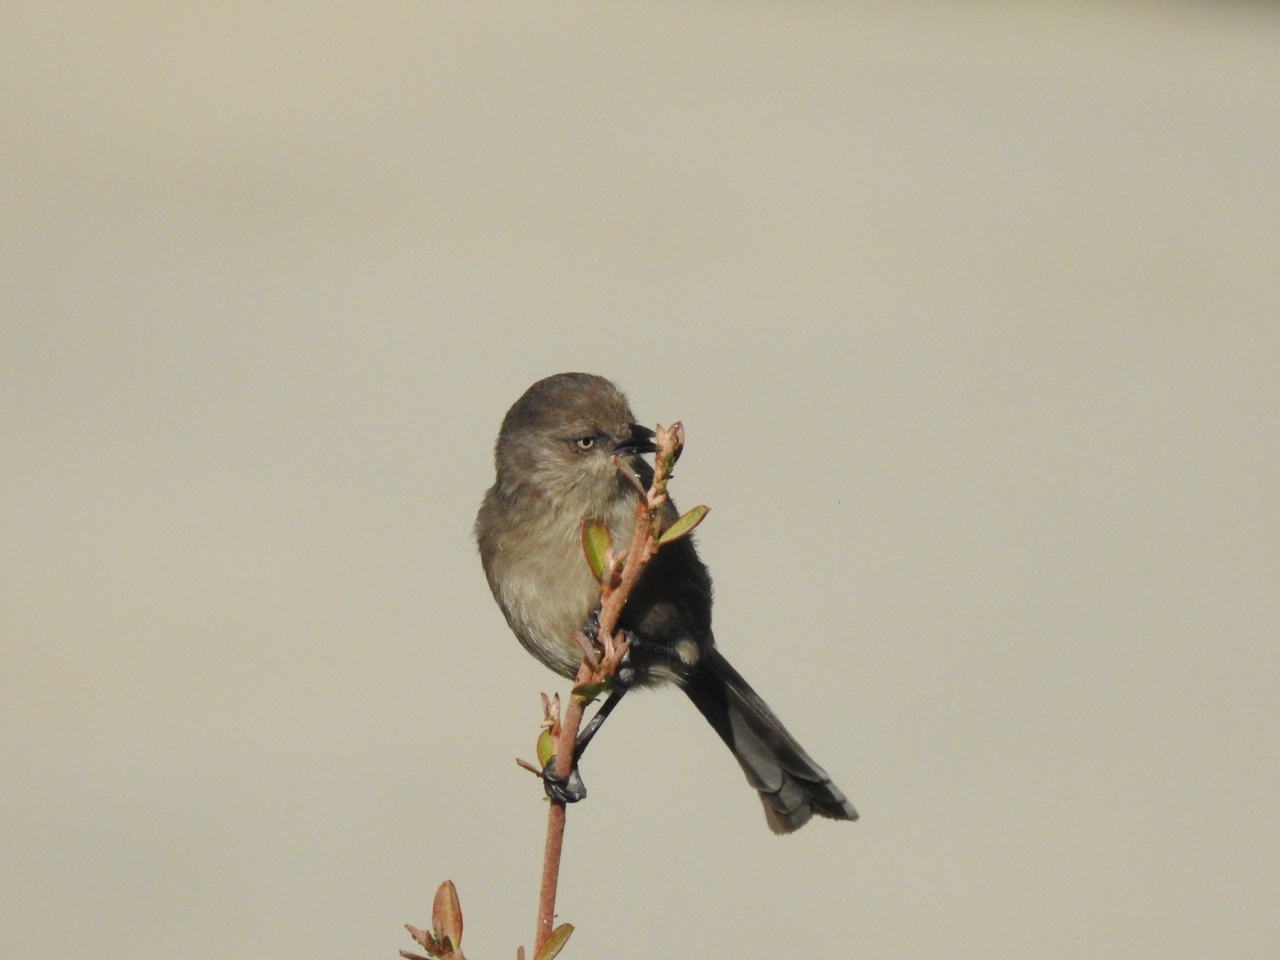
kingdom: Animalia
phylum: Chordata
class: Aves
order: Passeriformes
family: Aegithalidae
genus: Psaltriparus
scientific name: Psaltriparus minimus
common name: American bushtit
